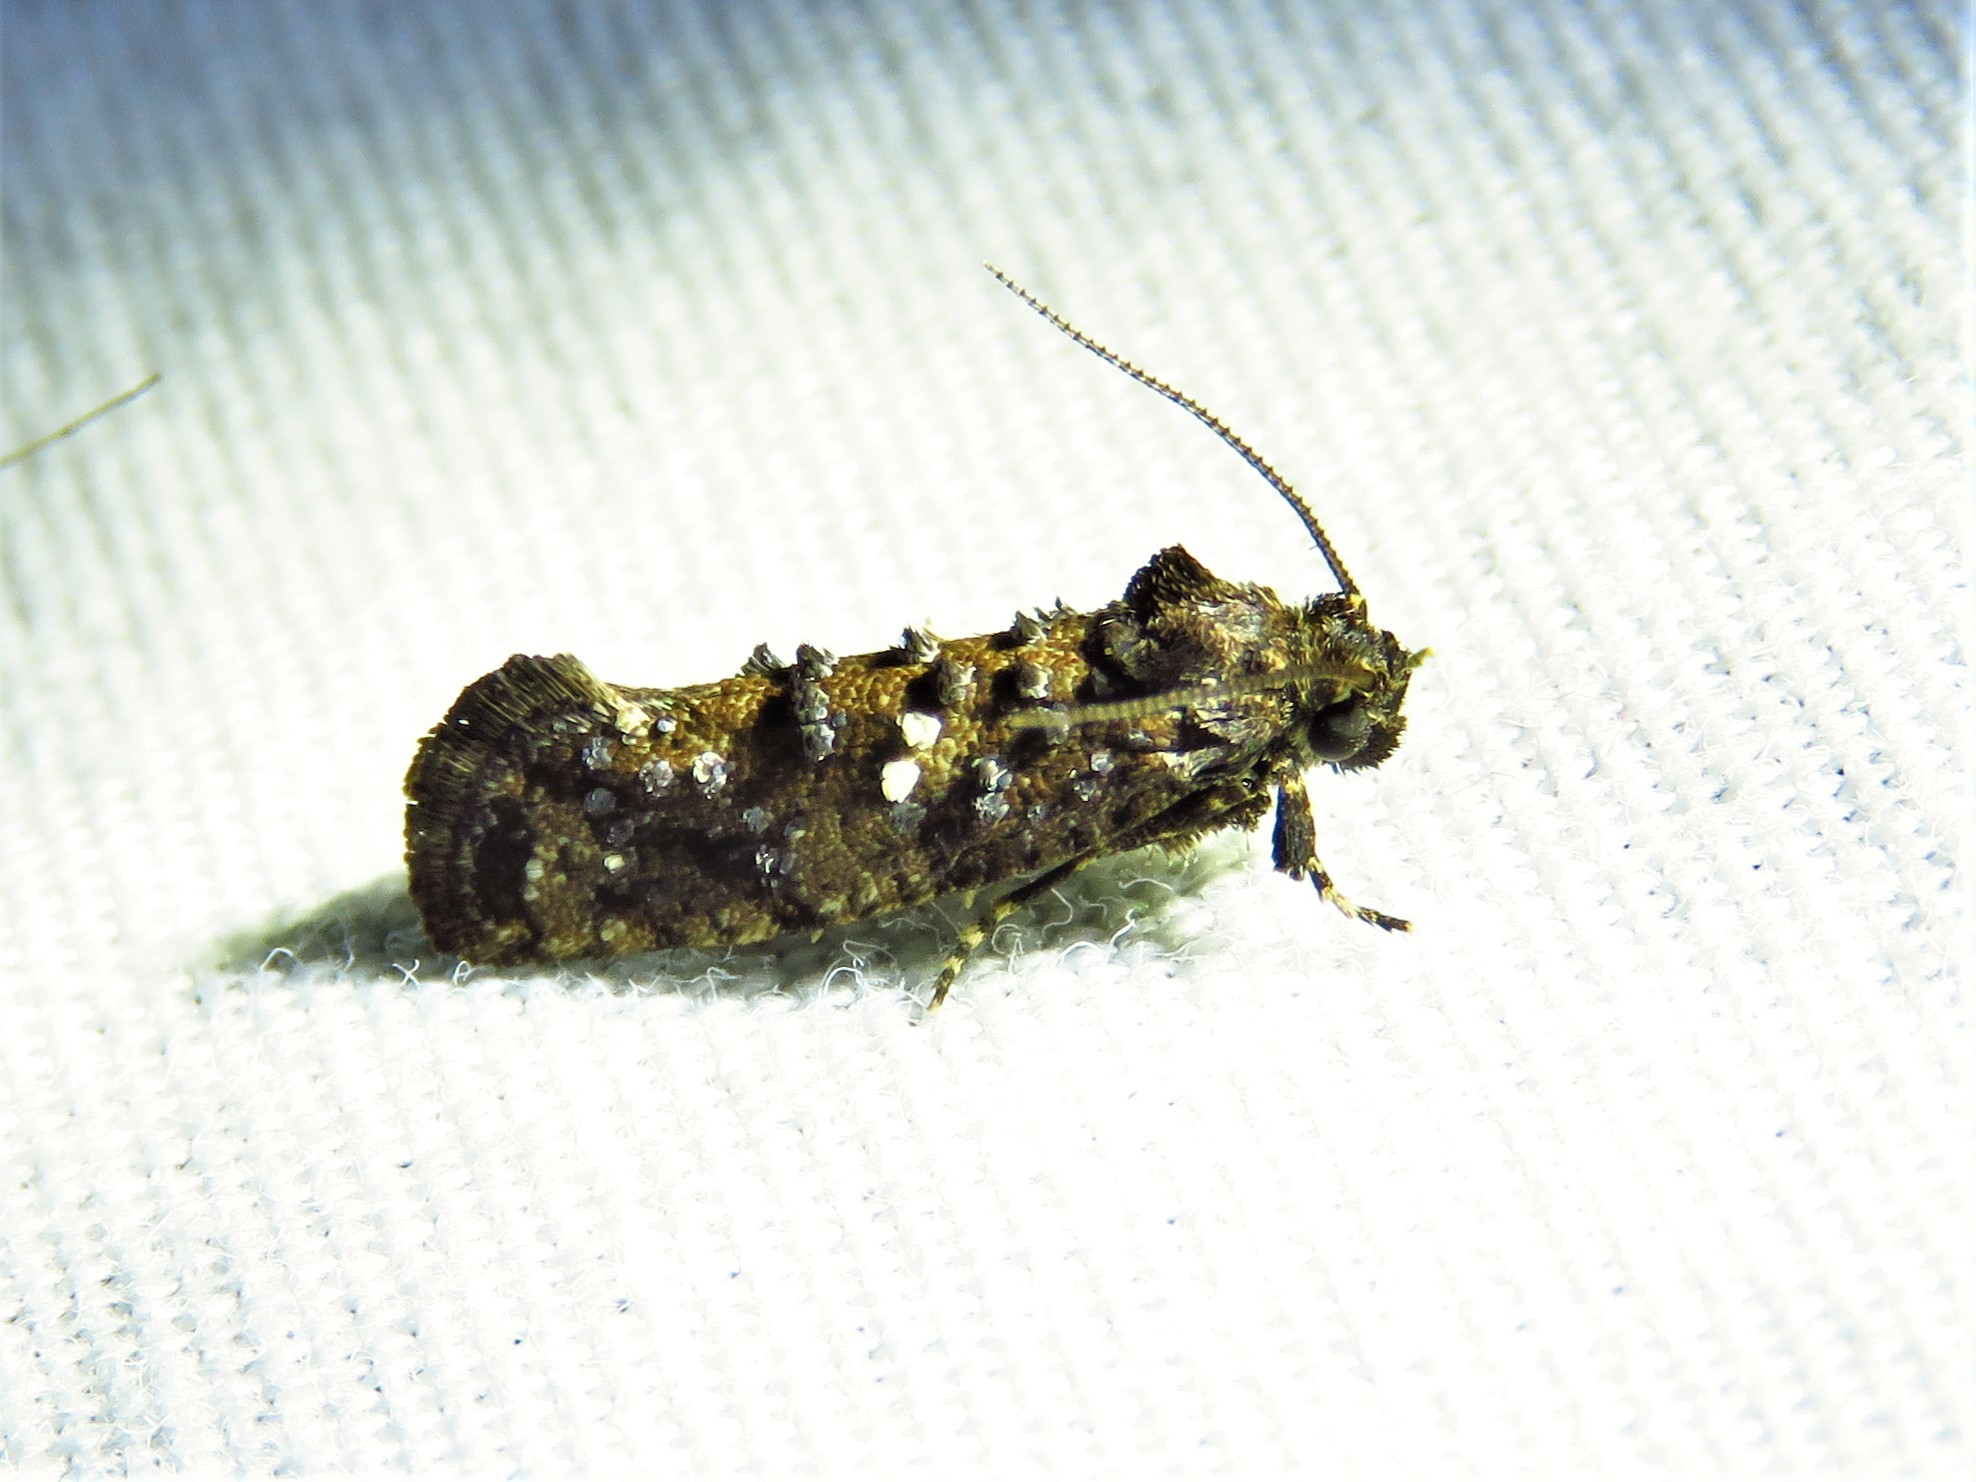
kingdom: Animalia
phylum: Arthropoda
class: Insecta
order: Lepidoptera
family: Tineidae
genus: Acrolophus
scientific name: Acrolophus cressoni
